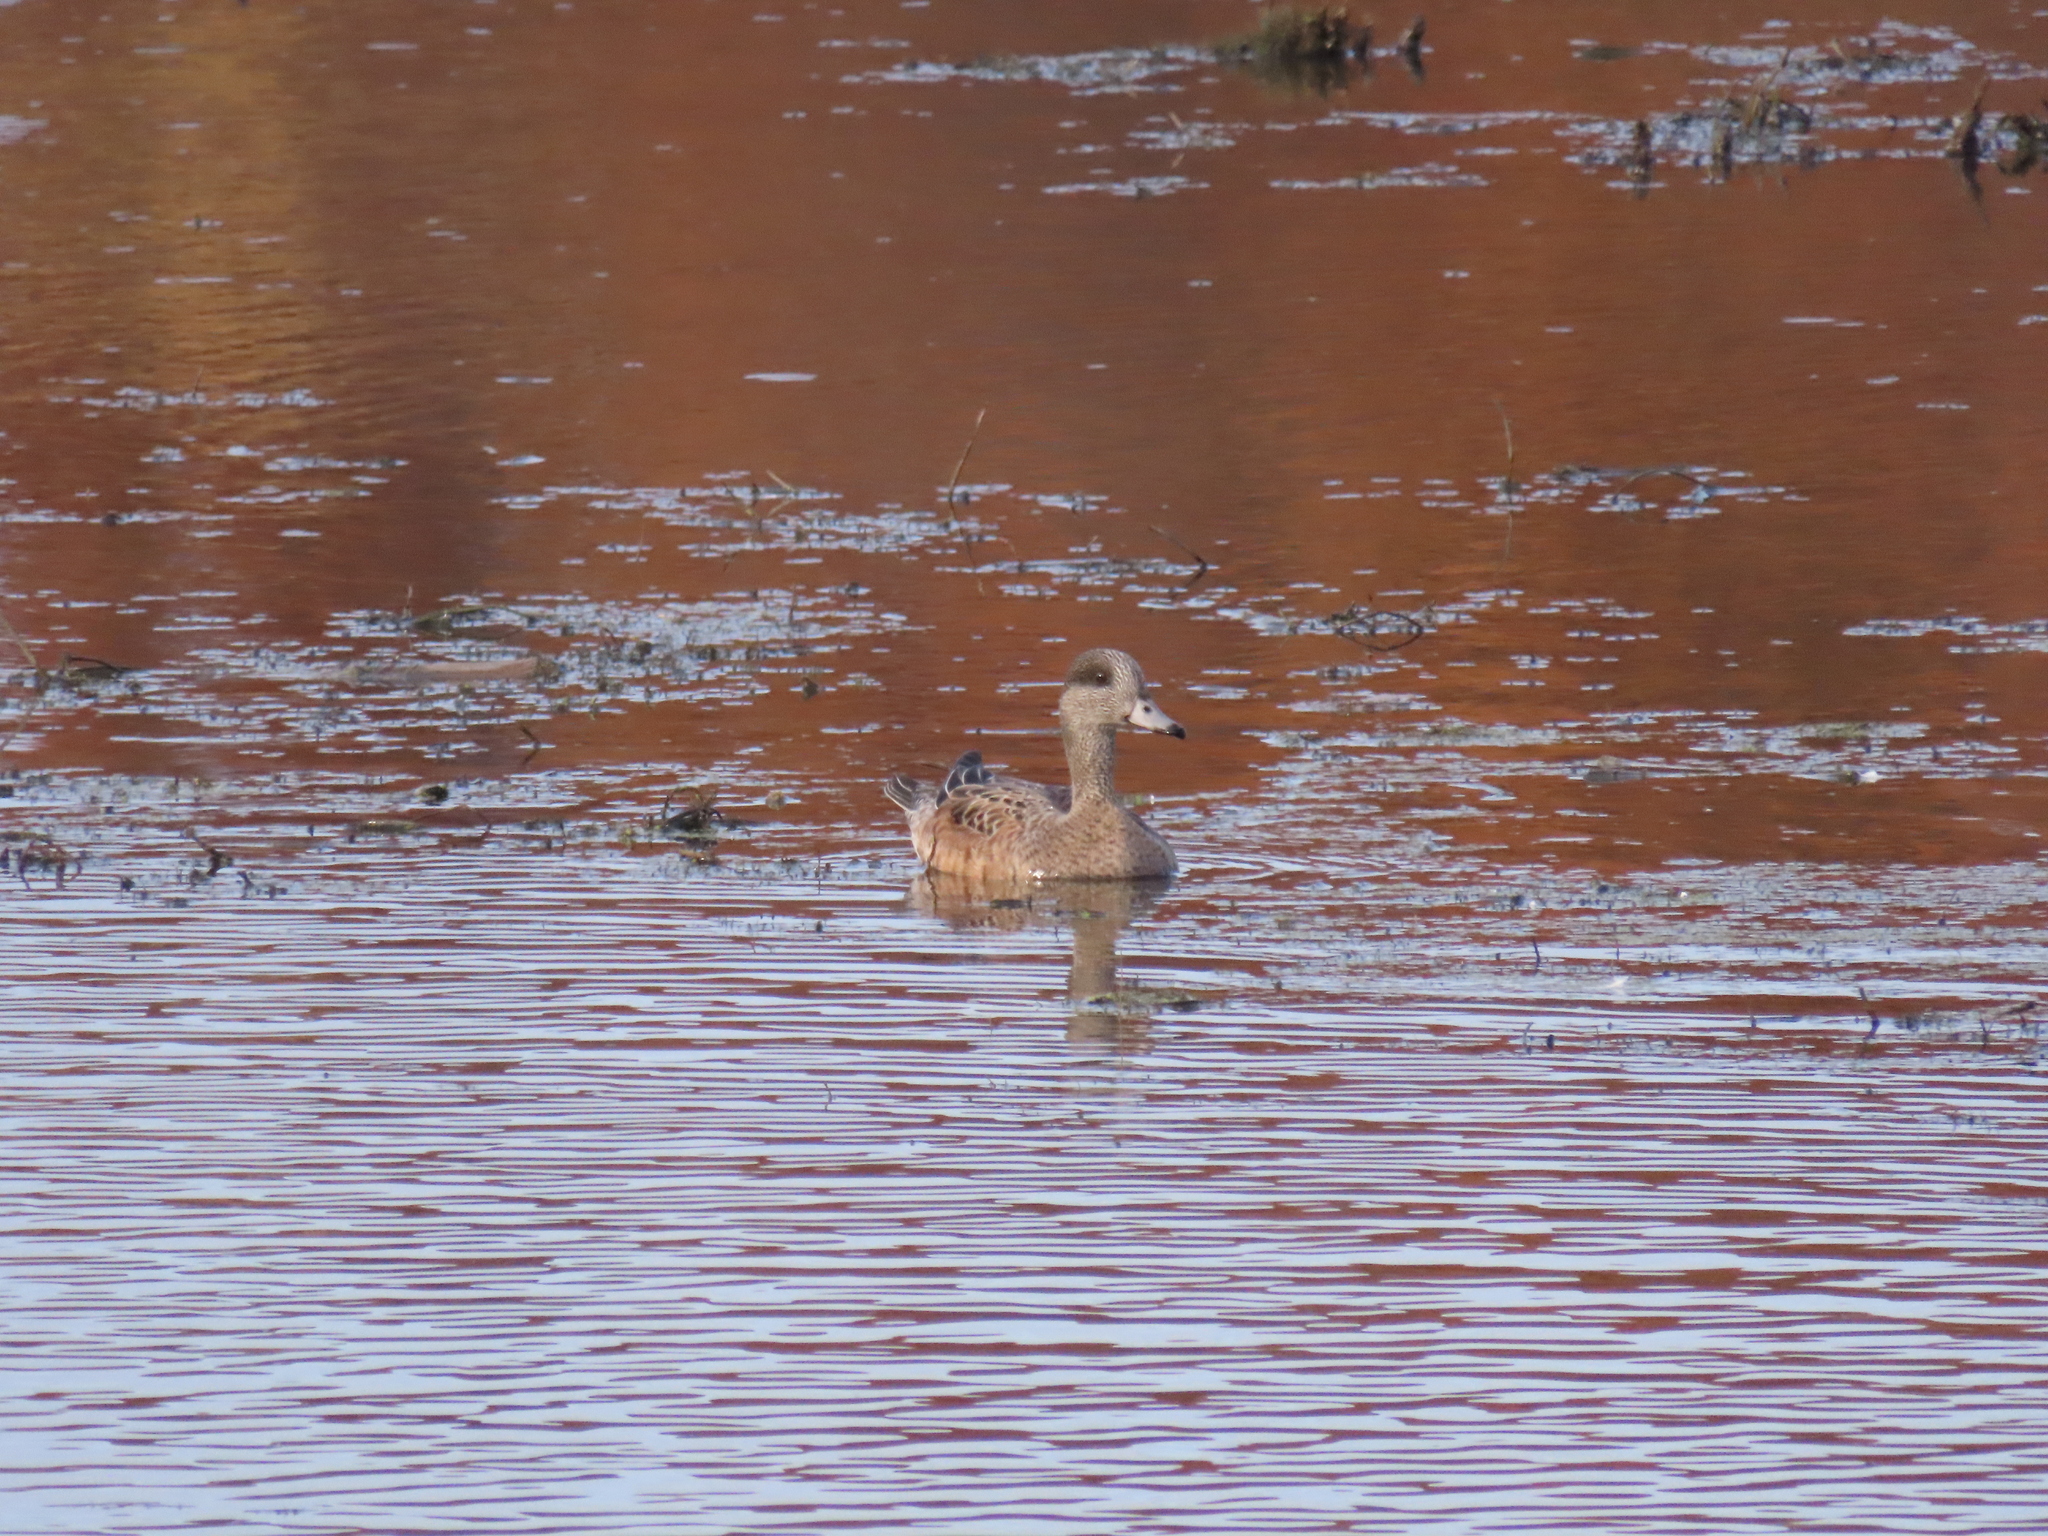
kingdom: Animalia
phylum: Chordata
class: Aves
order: Anseriformes
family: Anatidae
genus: Mareca
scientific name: Mareca americana
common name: American wigeon
